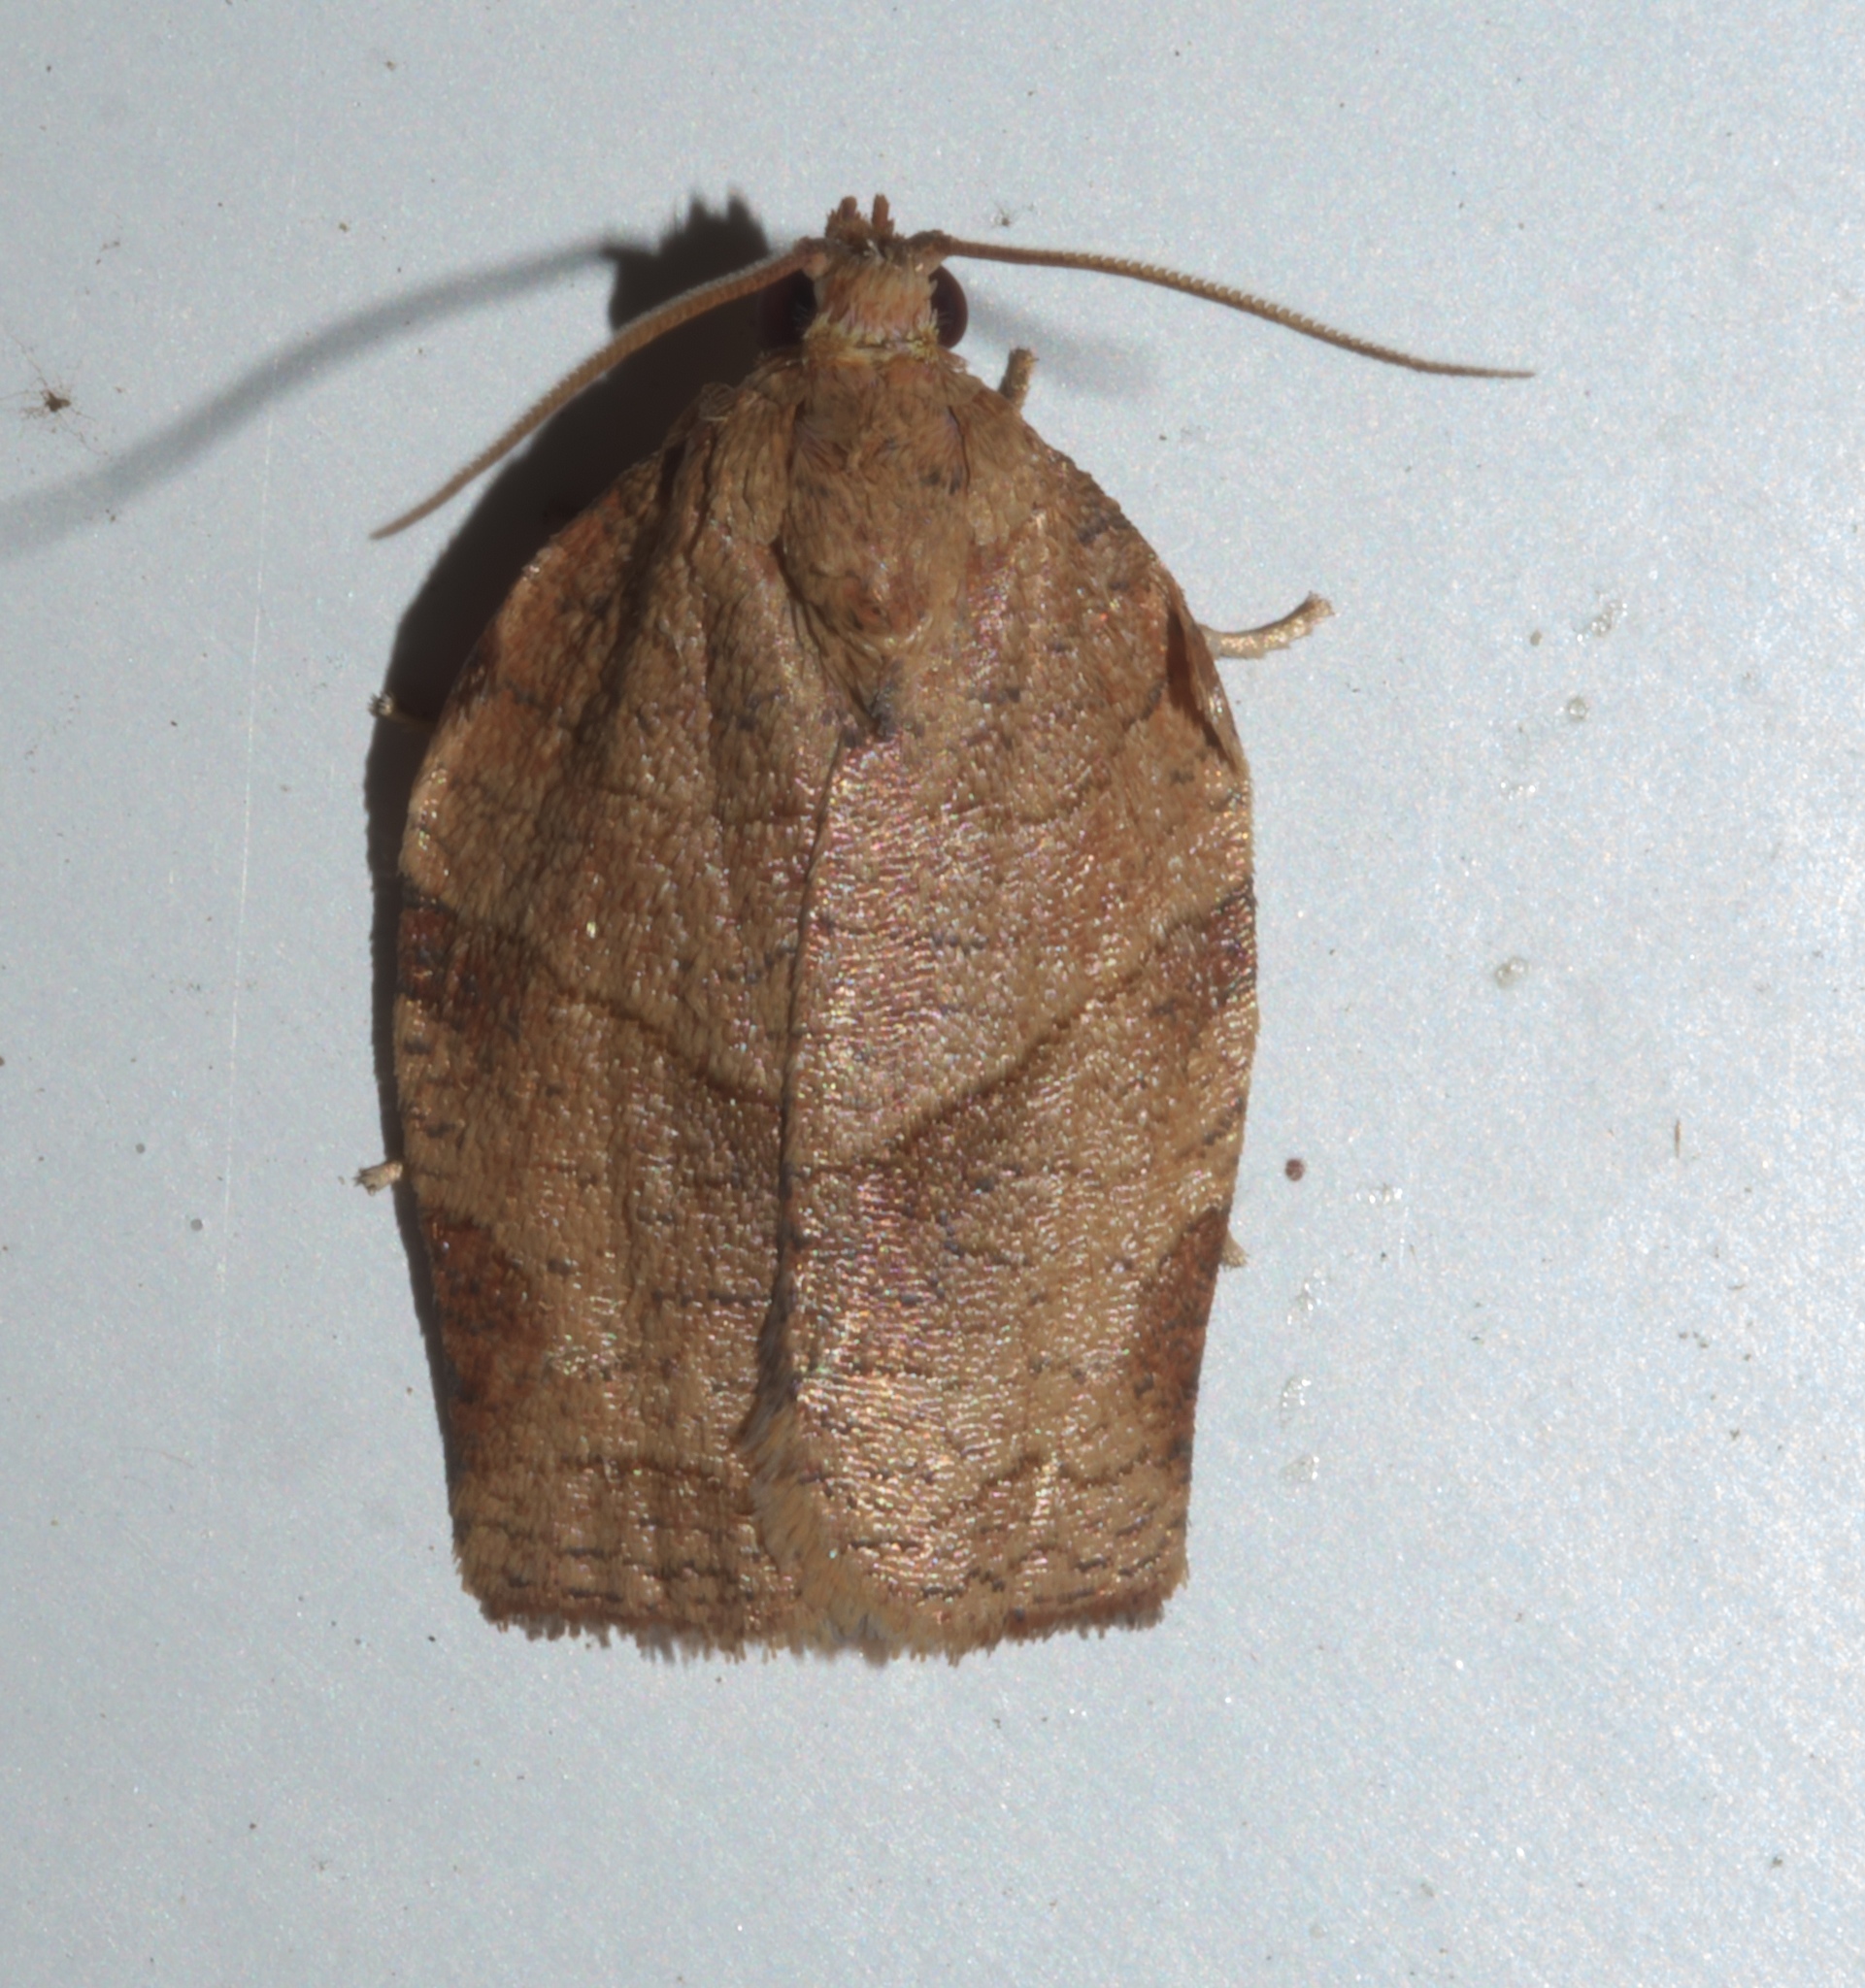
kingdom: Animalia
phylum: Arthropoda
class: Insecta
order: Lepidoptera
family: Tortricidae
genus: Choristoneura
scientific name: Choristoneura rosaceana
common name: Oblique-banded leafroller moth
